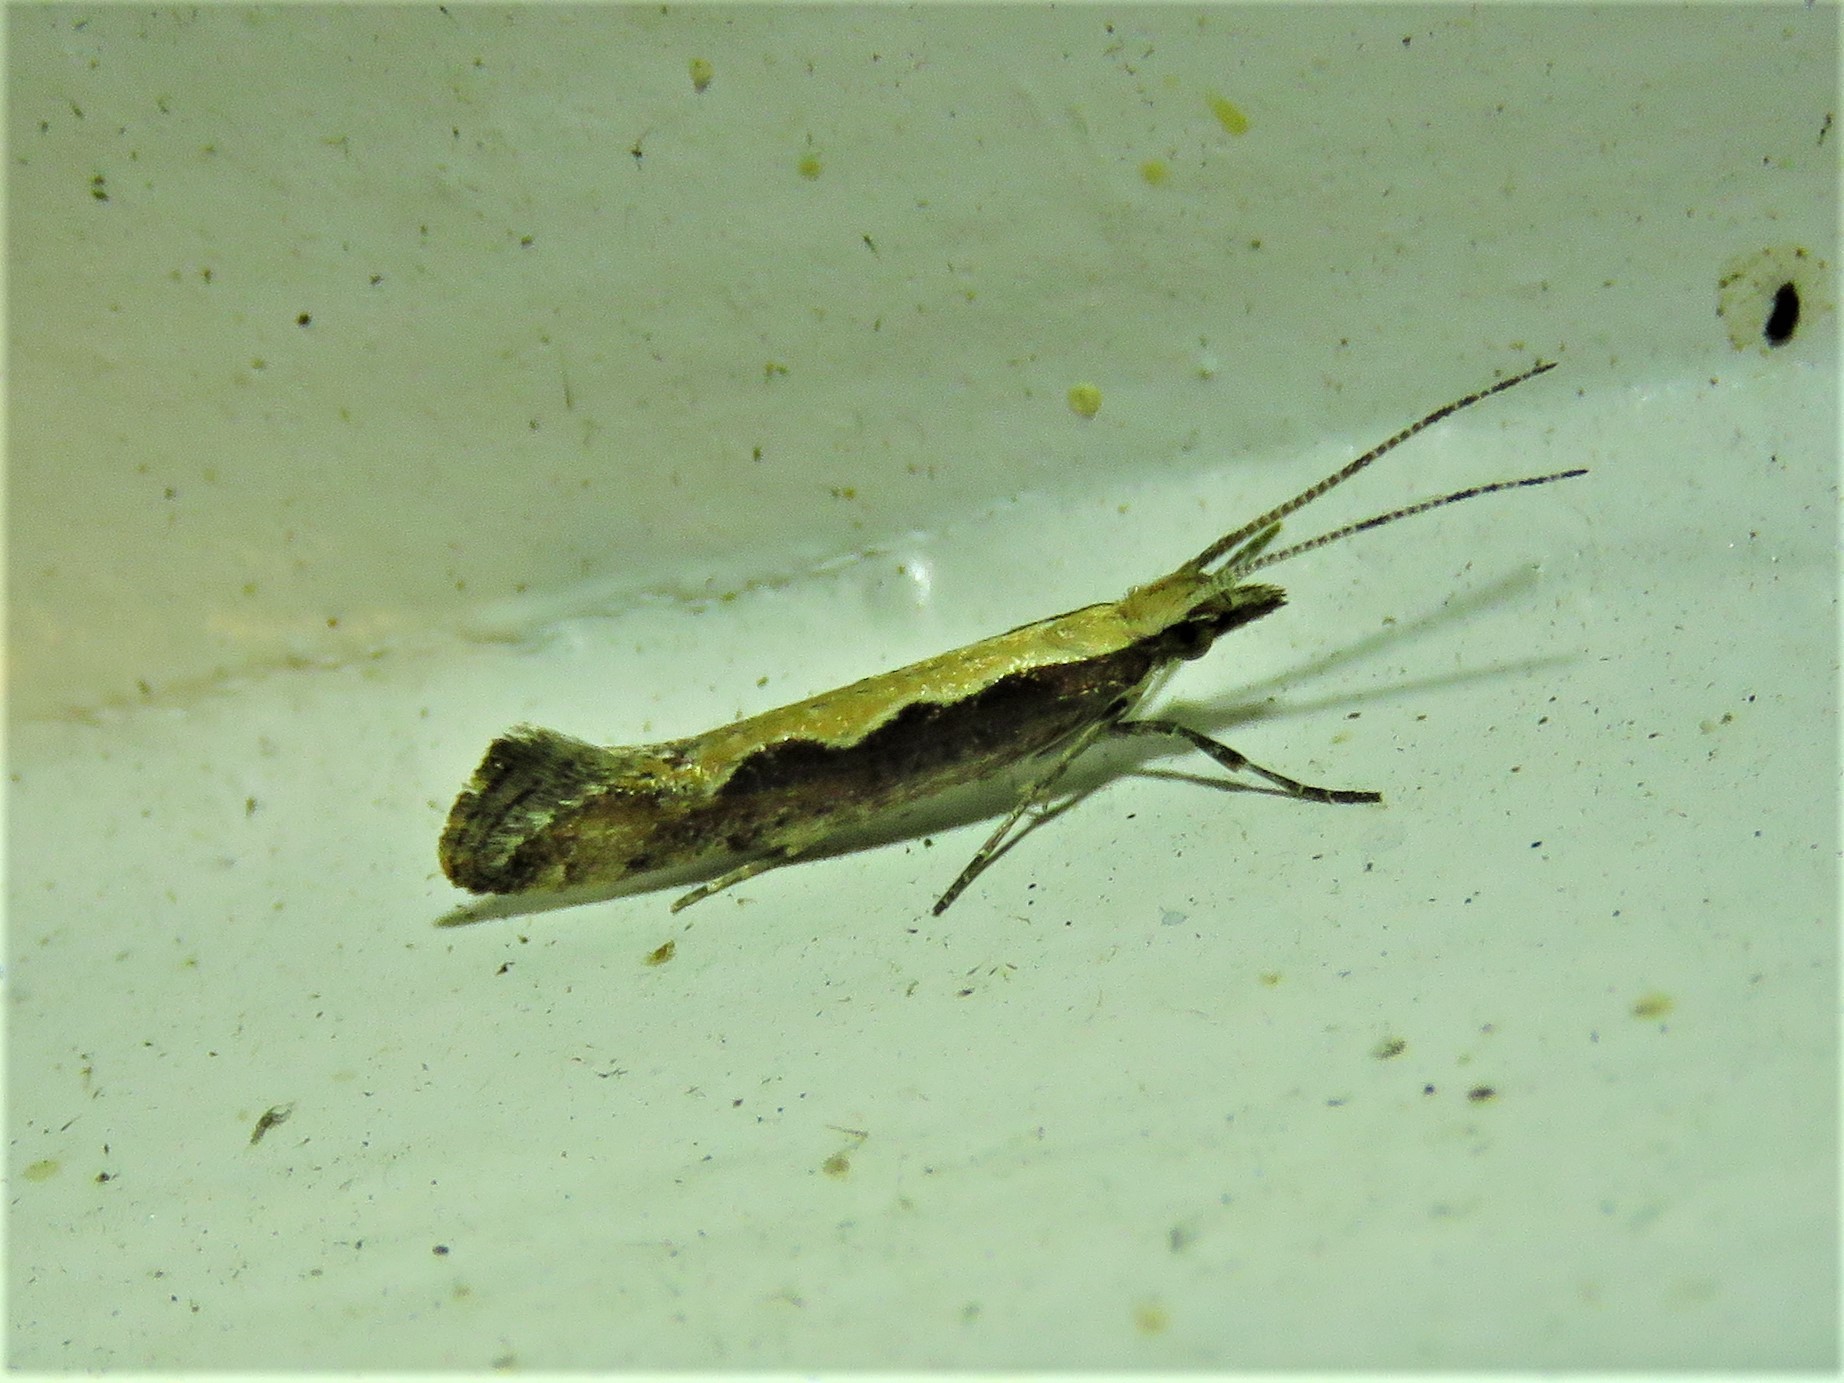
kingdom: Animalia
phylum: Arthropoda
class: Insecta
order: Lepidoptera
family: Plutellidae
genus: Plutella
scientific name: Plutella xylostella
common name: Diamond-back moth
